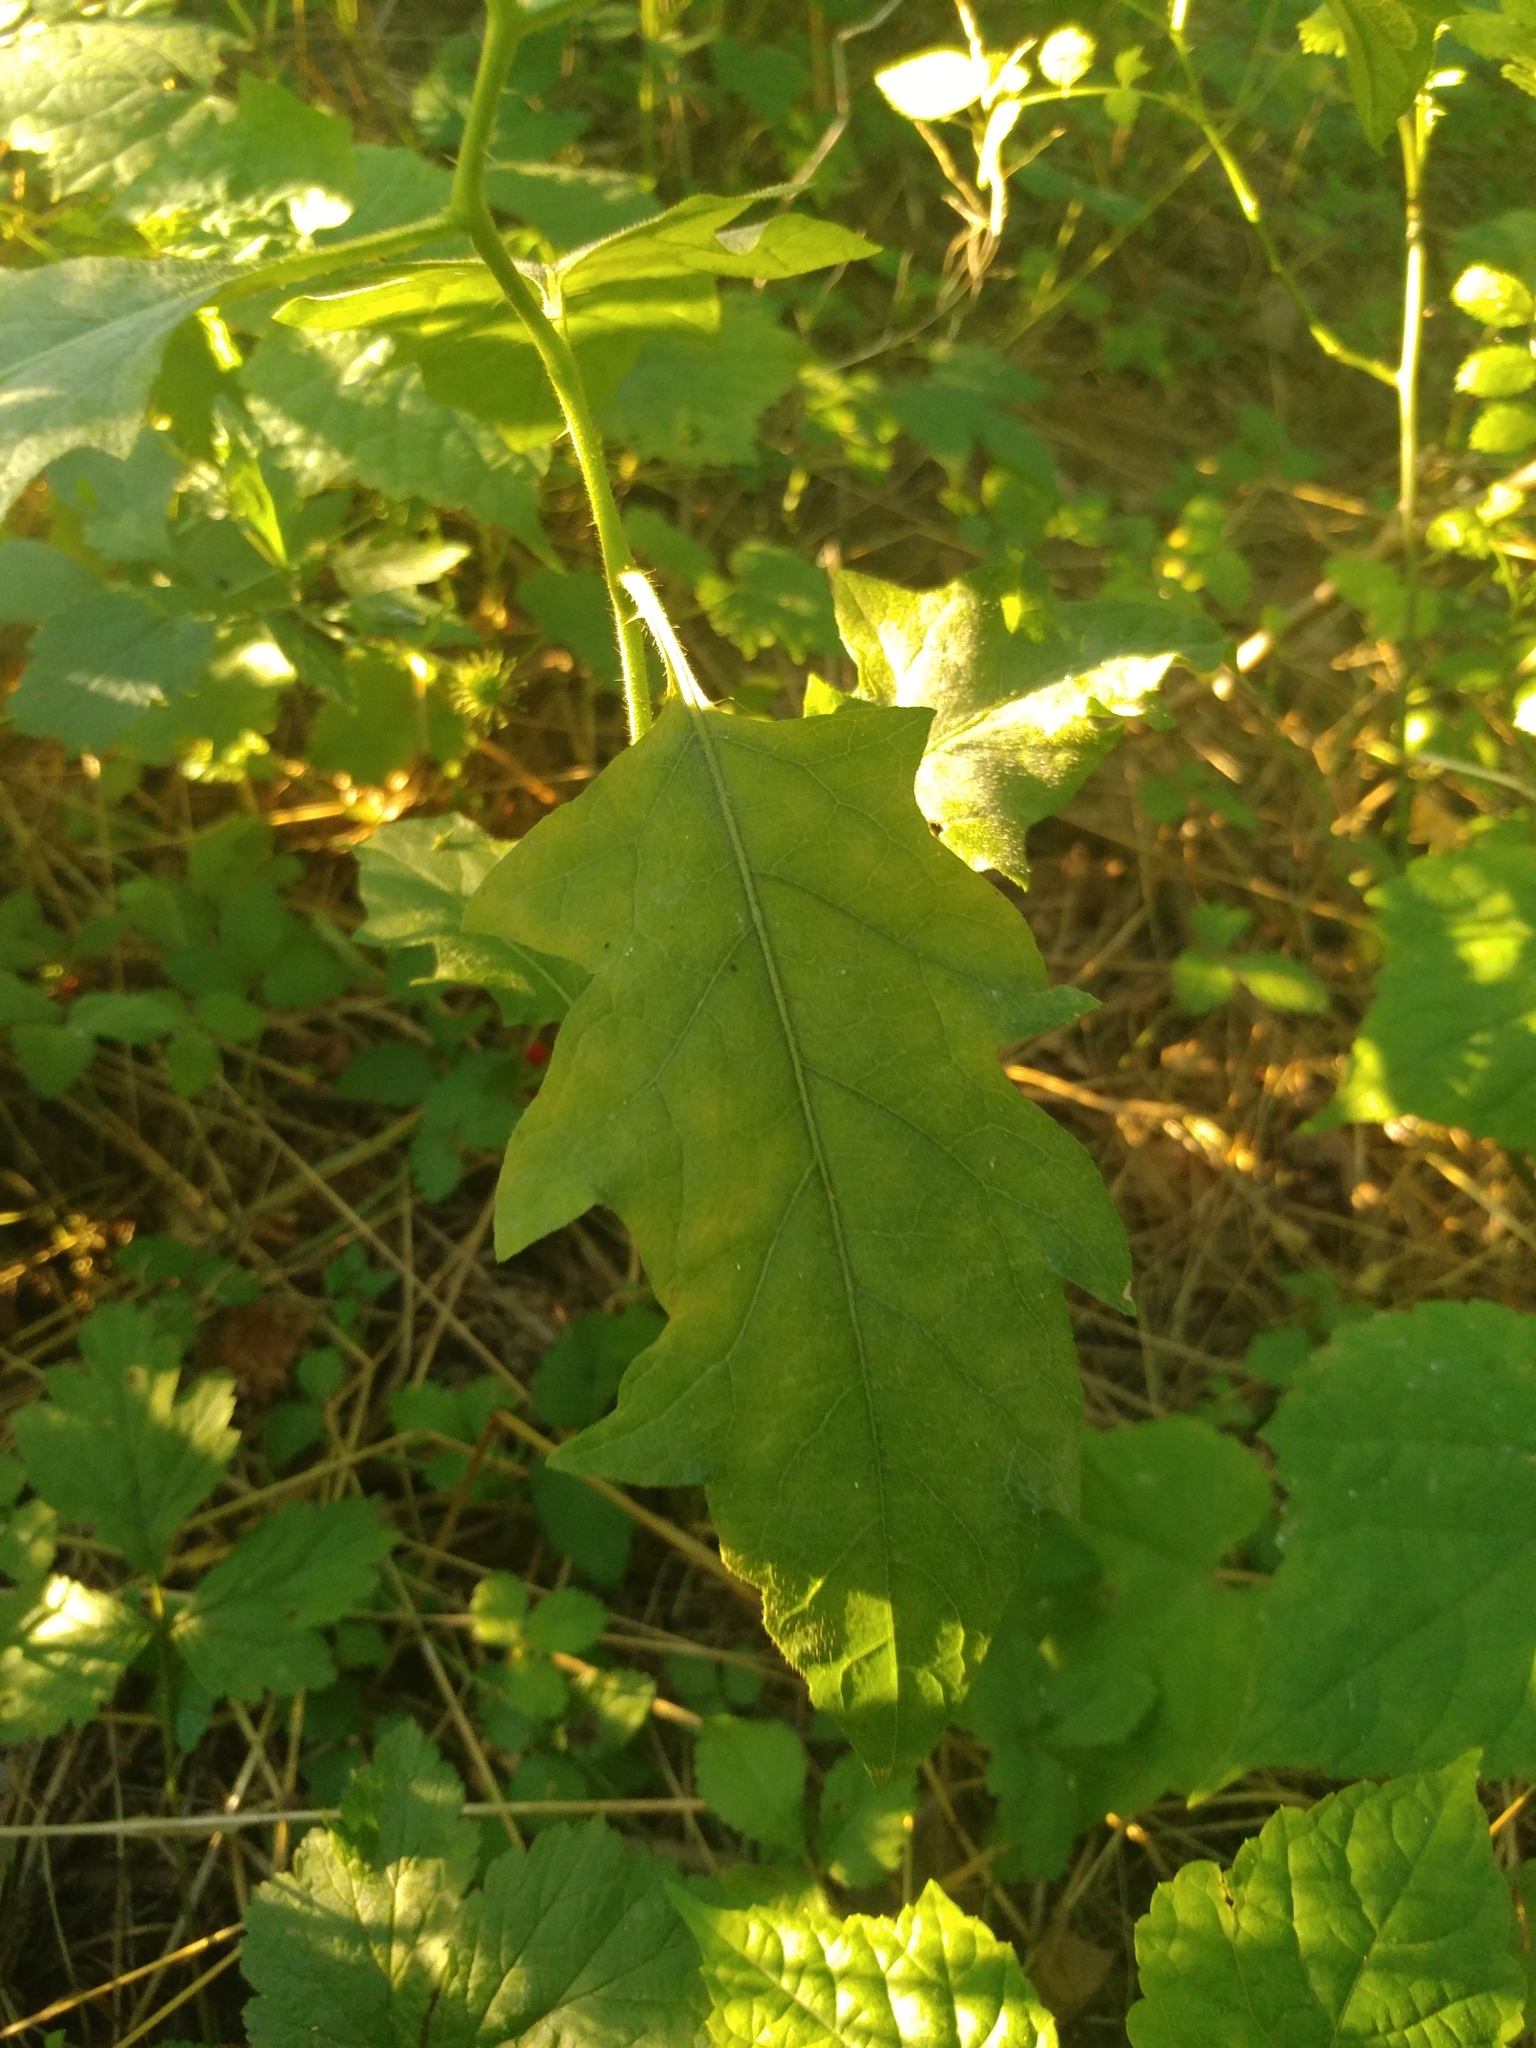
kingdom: Plantae
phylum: Tracheophyta
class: Magnoliopsida
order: Solanales
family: Solanaceae
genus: Solanum
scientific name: Solanum carolinense
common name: Horse-nettle
